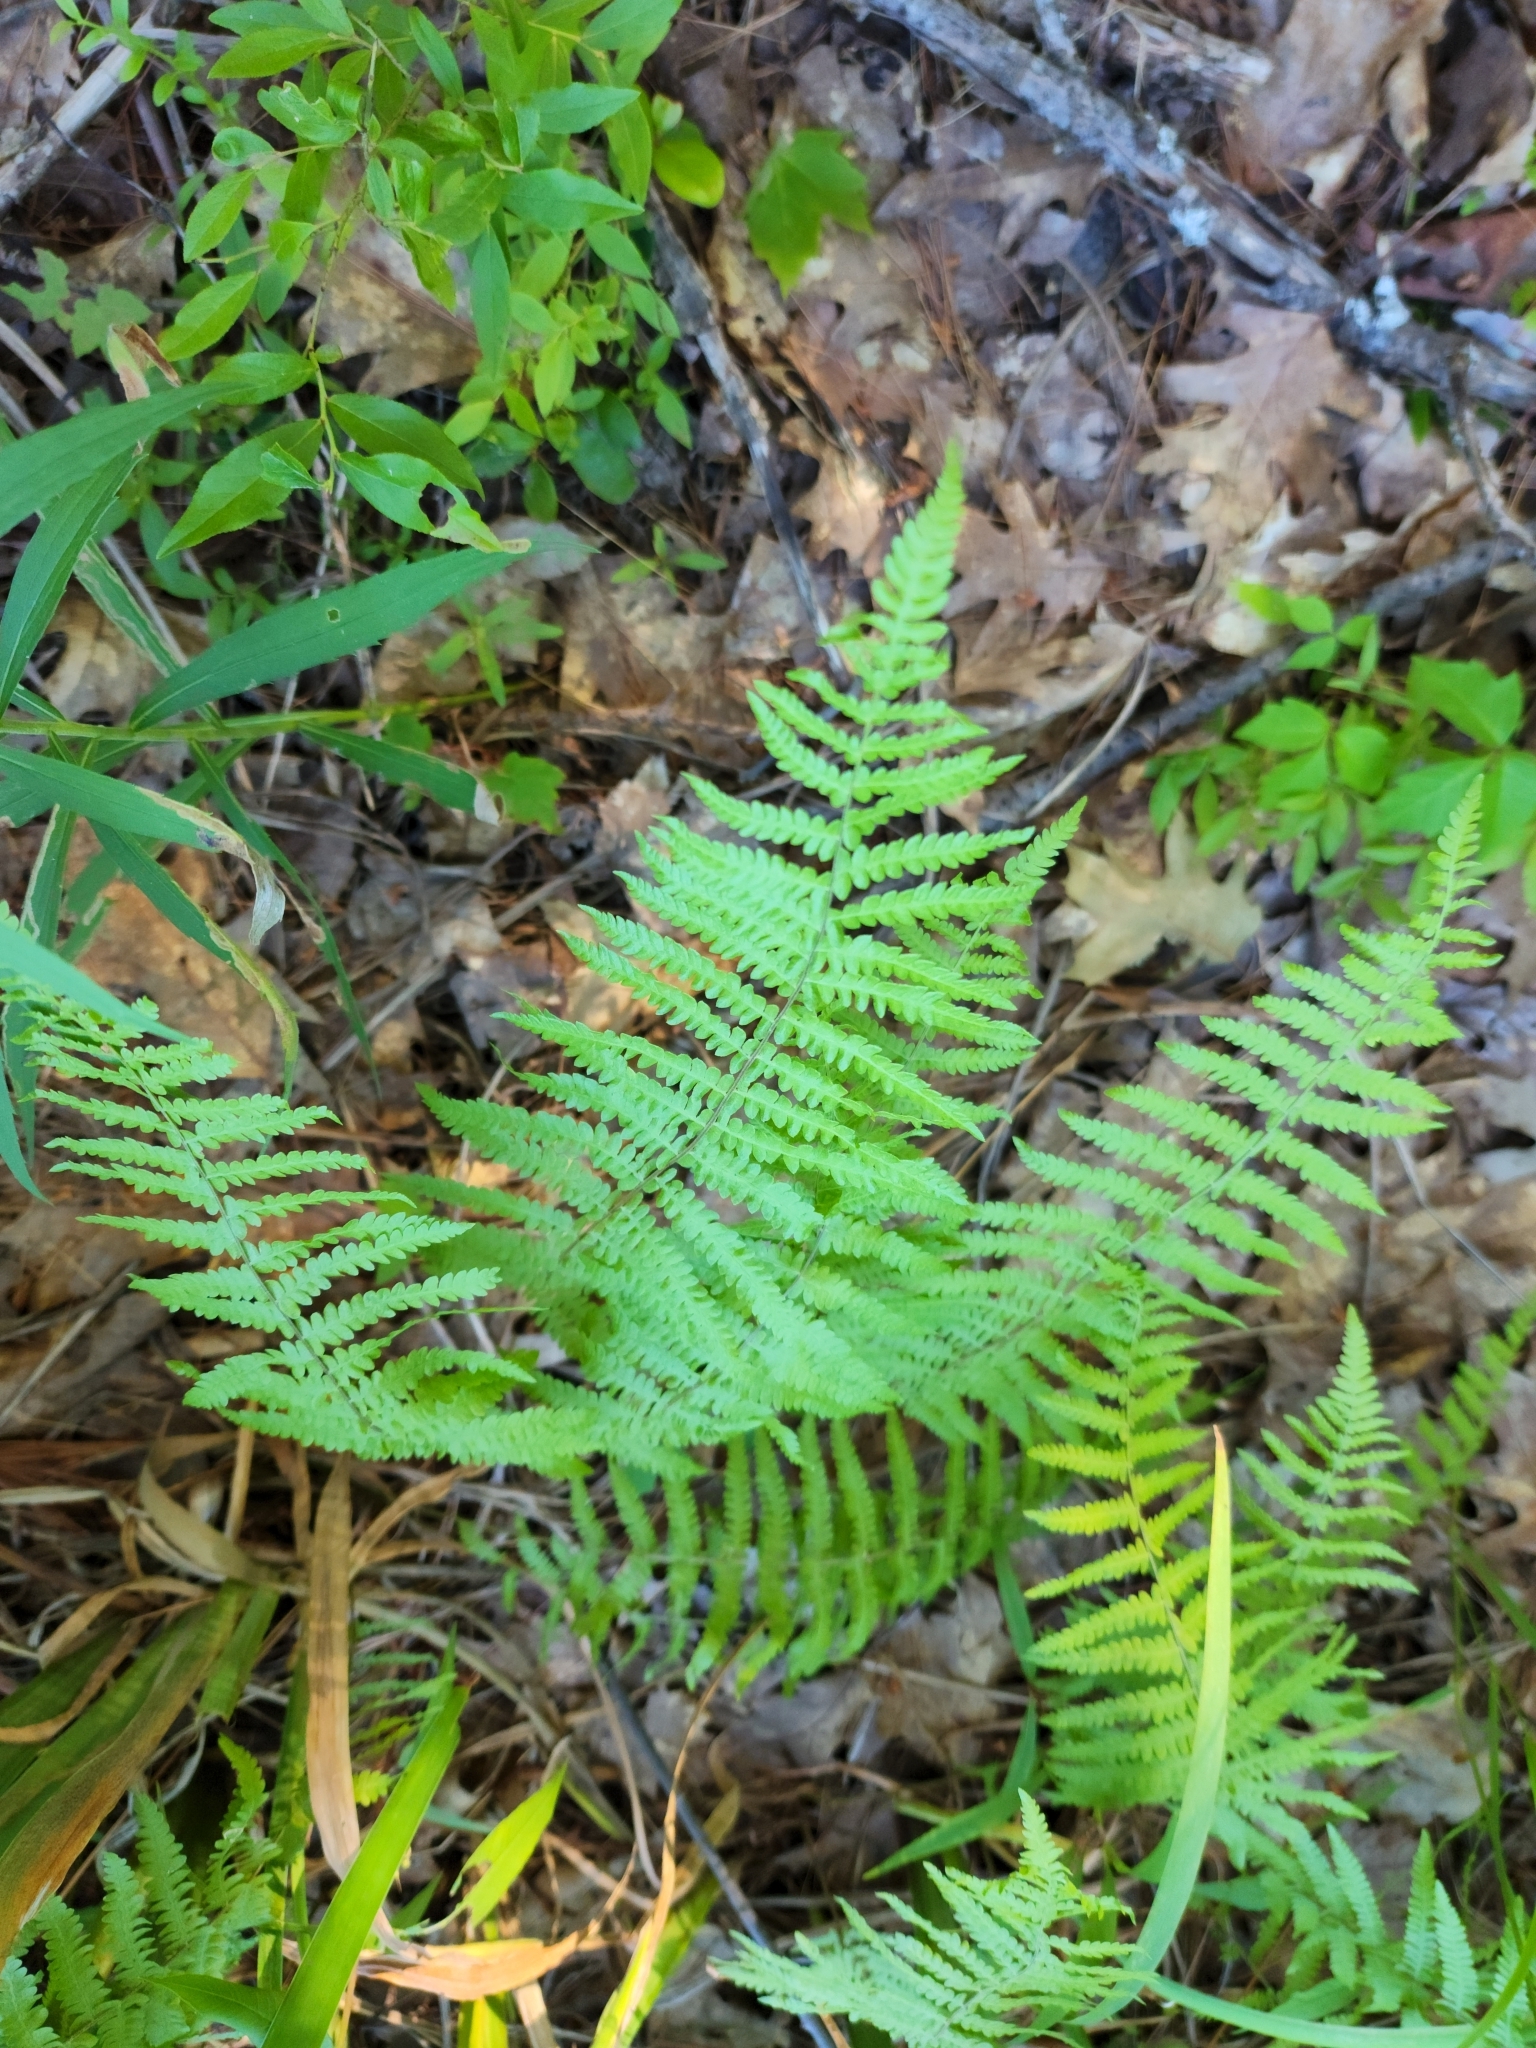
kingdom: Plantae
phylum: Tracheophyta
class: Polypodiopsida
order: Polypodiales
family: Thelypteridaceae
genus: Thelypteris
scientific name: Thelypteris palustris
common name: Marsh fern
